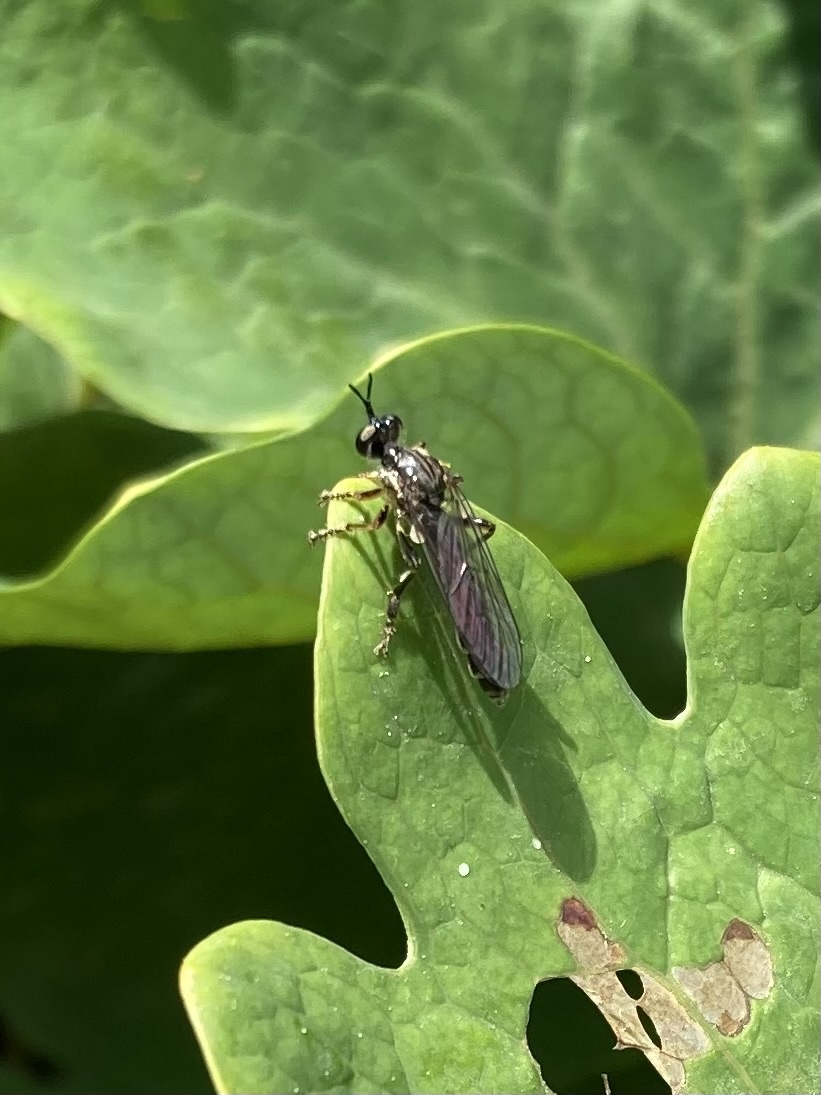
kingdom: Animalia
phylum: Arthropoda
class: Insecta
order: Diptera
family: Asilidae
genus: Dioctria
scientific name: Dioctria hyalipennis
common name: Stripe-legged robberfly
